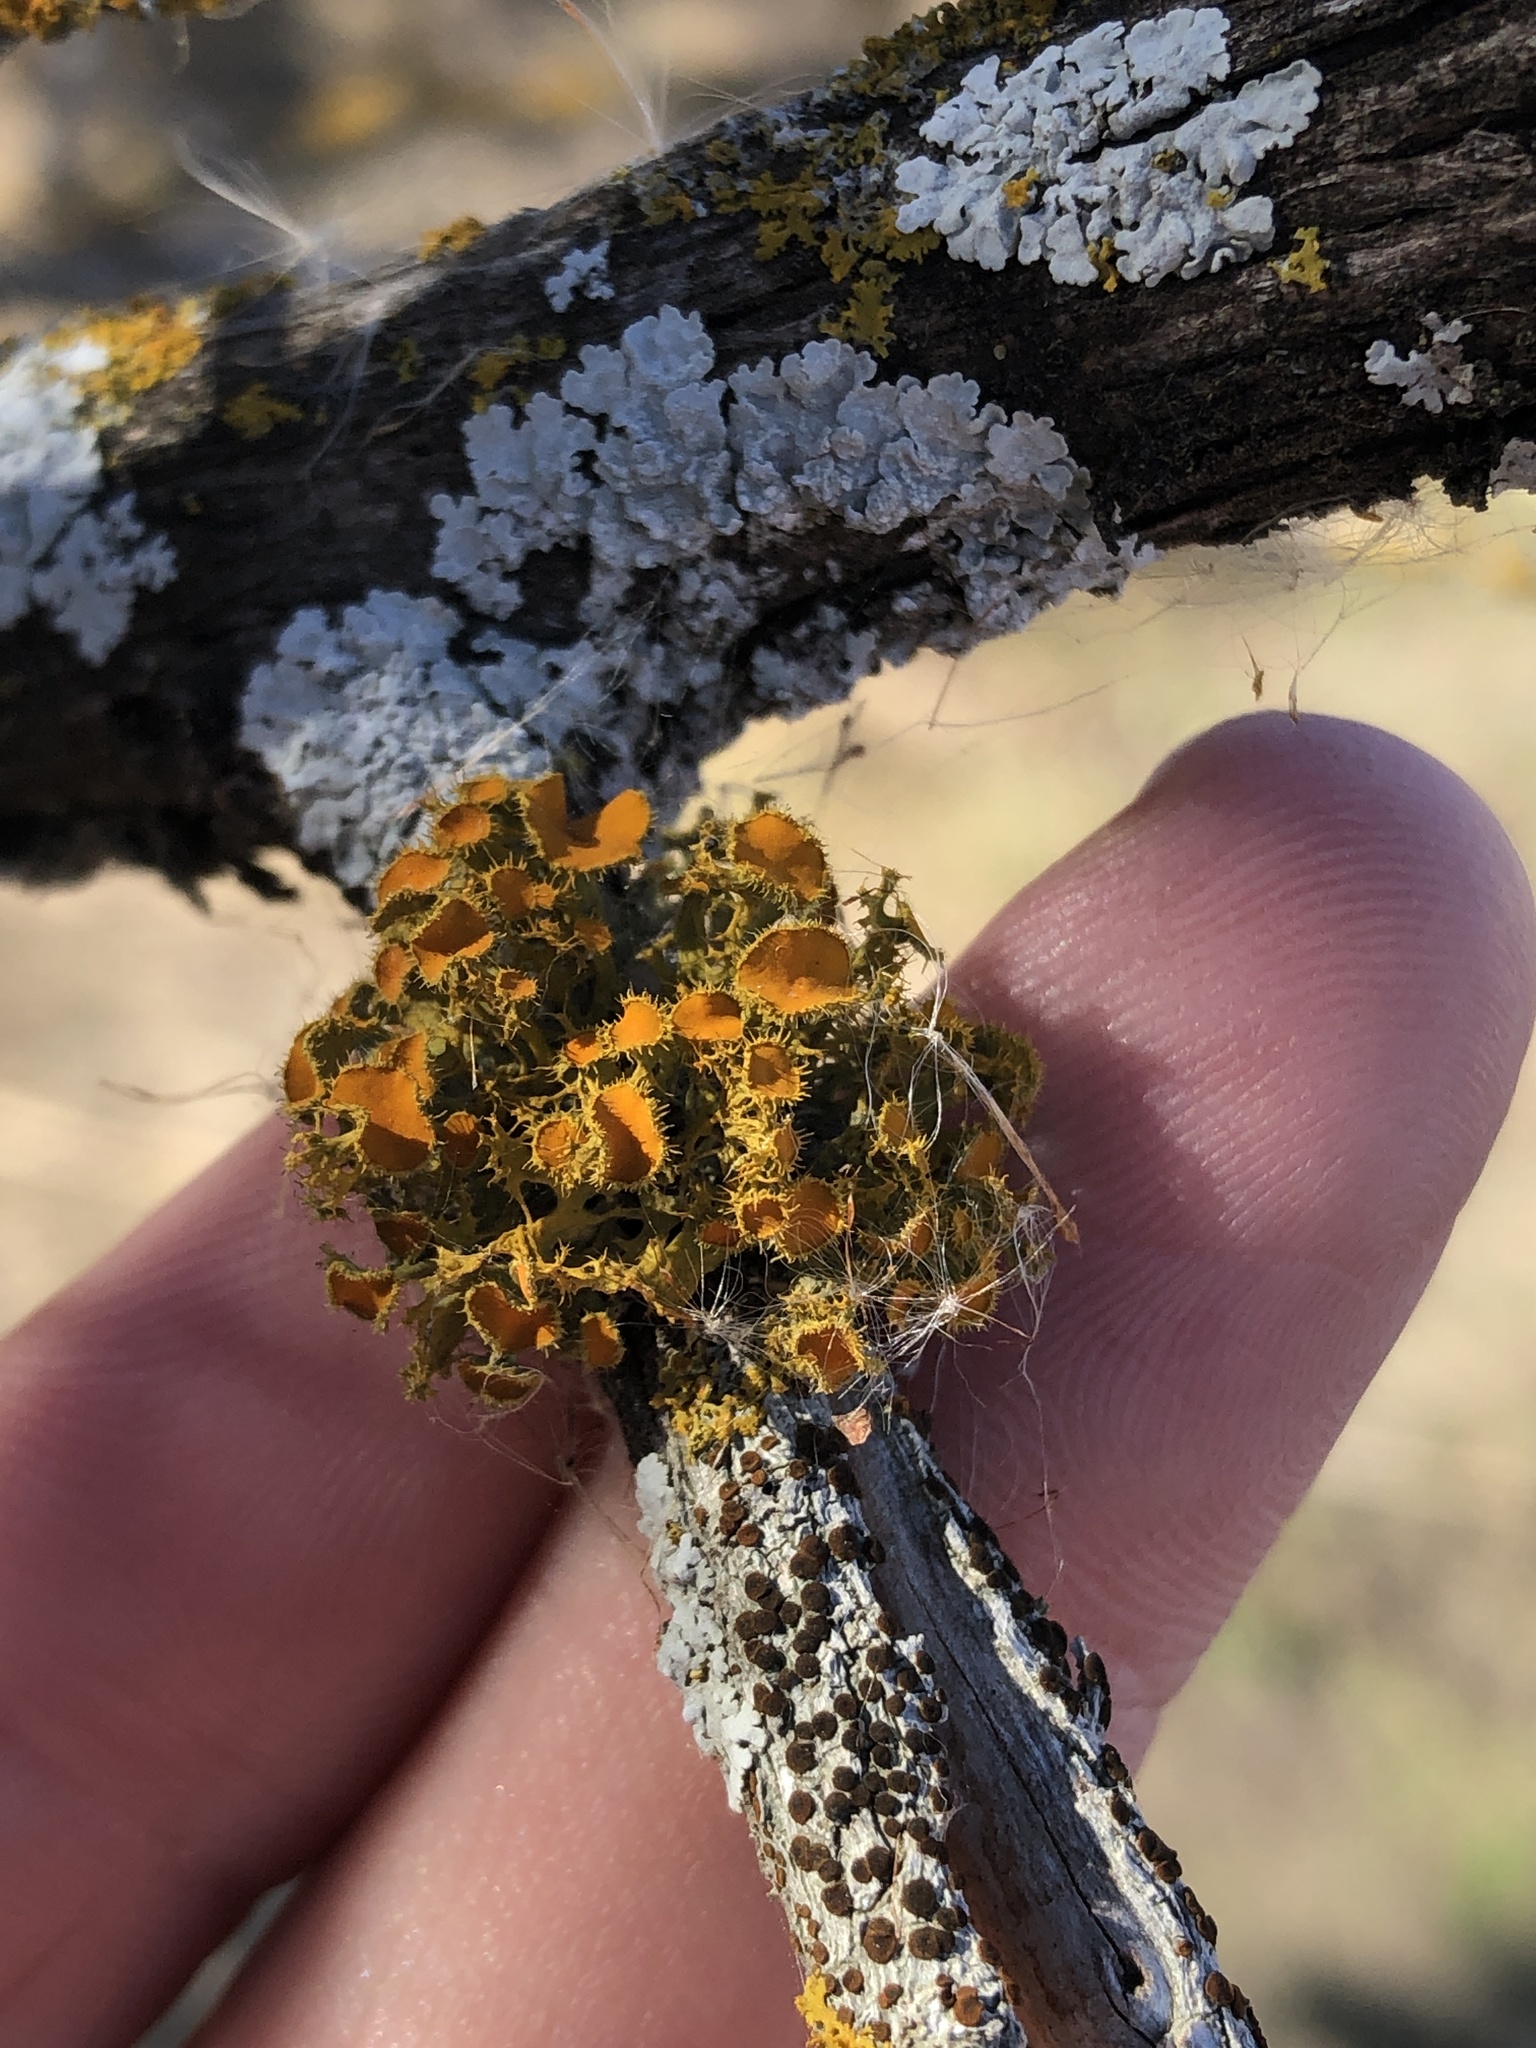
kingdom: Fungi
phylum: Ascomycota
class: Lecanoromycetes
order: Teloschistales
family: Teloschistaceae
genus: Niorma
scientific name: Niorma chrysophthalma
